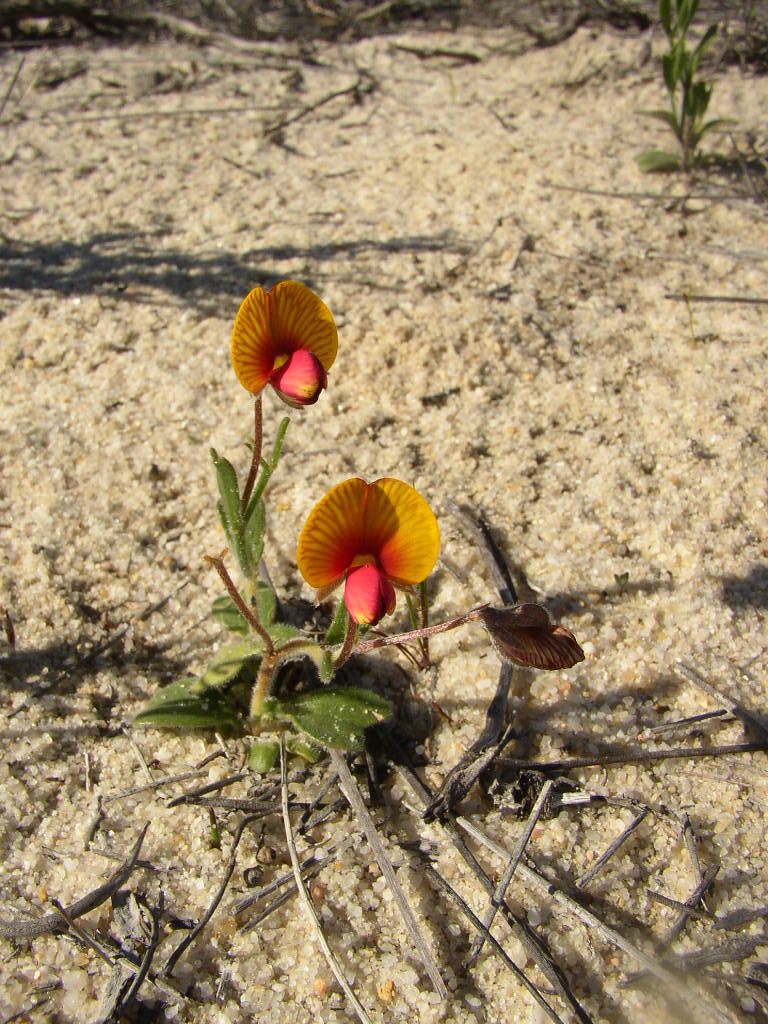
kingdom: Plantae
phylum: Tracheophyta
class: Magnoliopsida
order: Fabales
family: Fabaceae
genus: Isotropis
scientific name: Isotropis cuneifolia
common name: Granny bonnets
